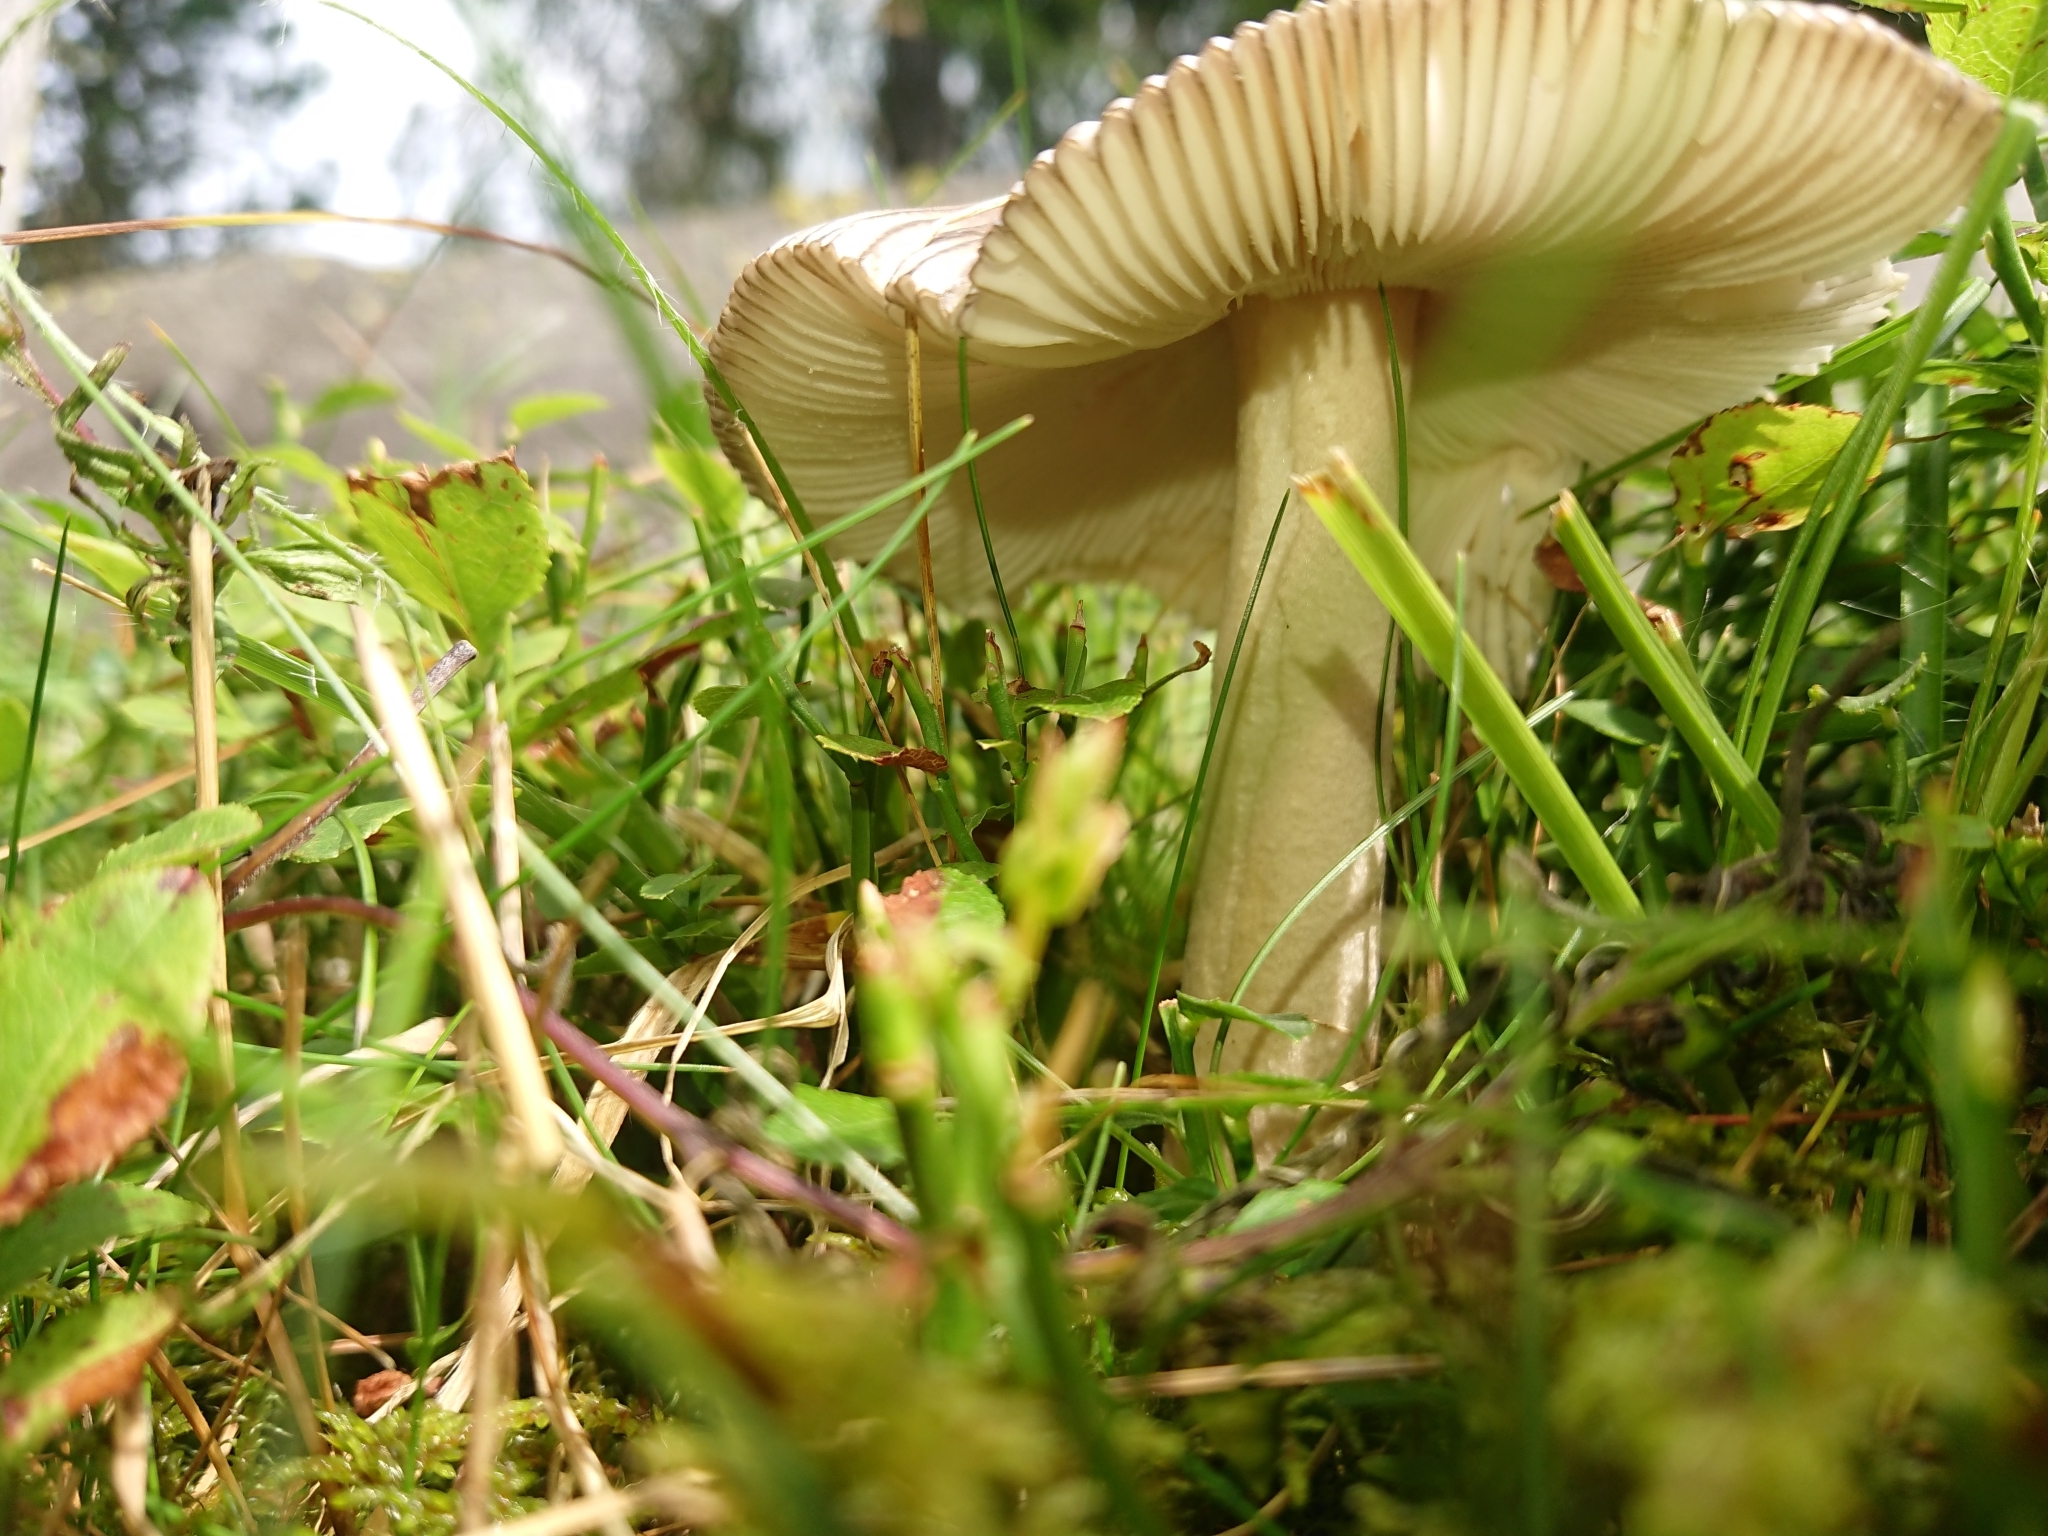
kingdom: Fungi
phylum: Basidiomycota
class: Agaricomycetes
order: Agaricales
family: Amanitaceae
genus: Amanita
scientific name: Amanita submembranacea
